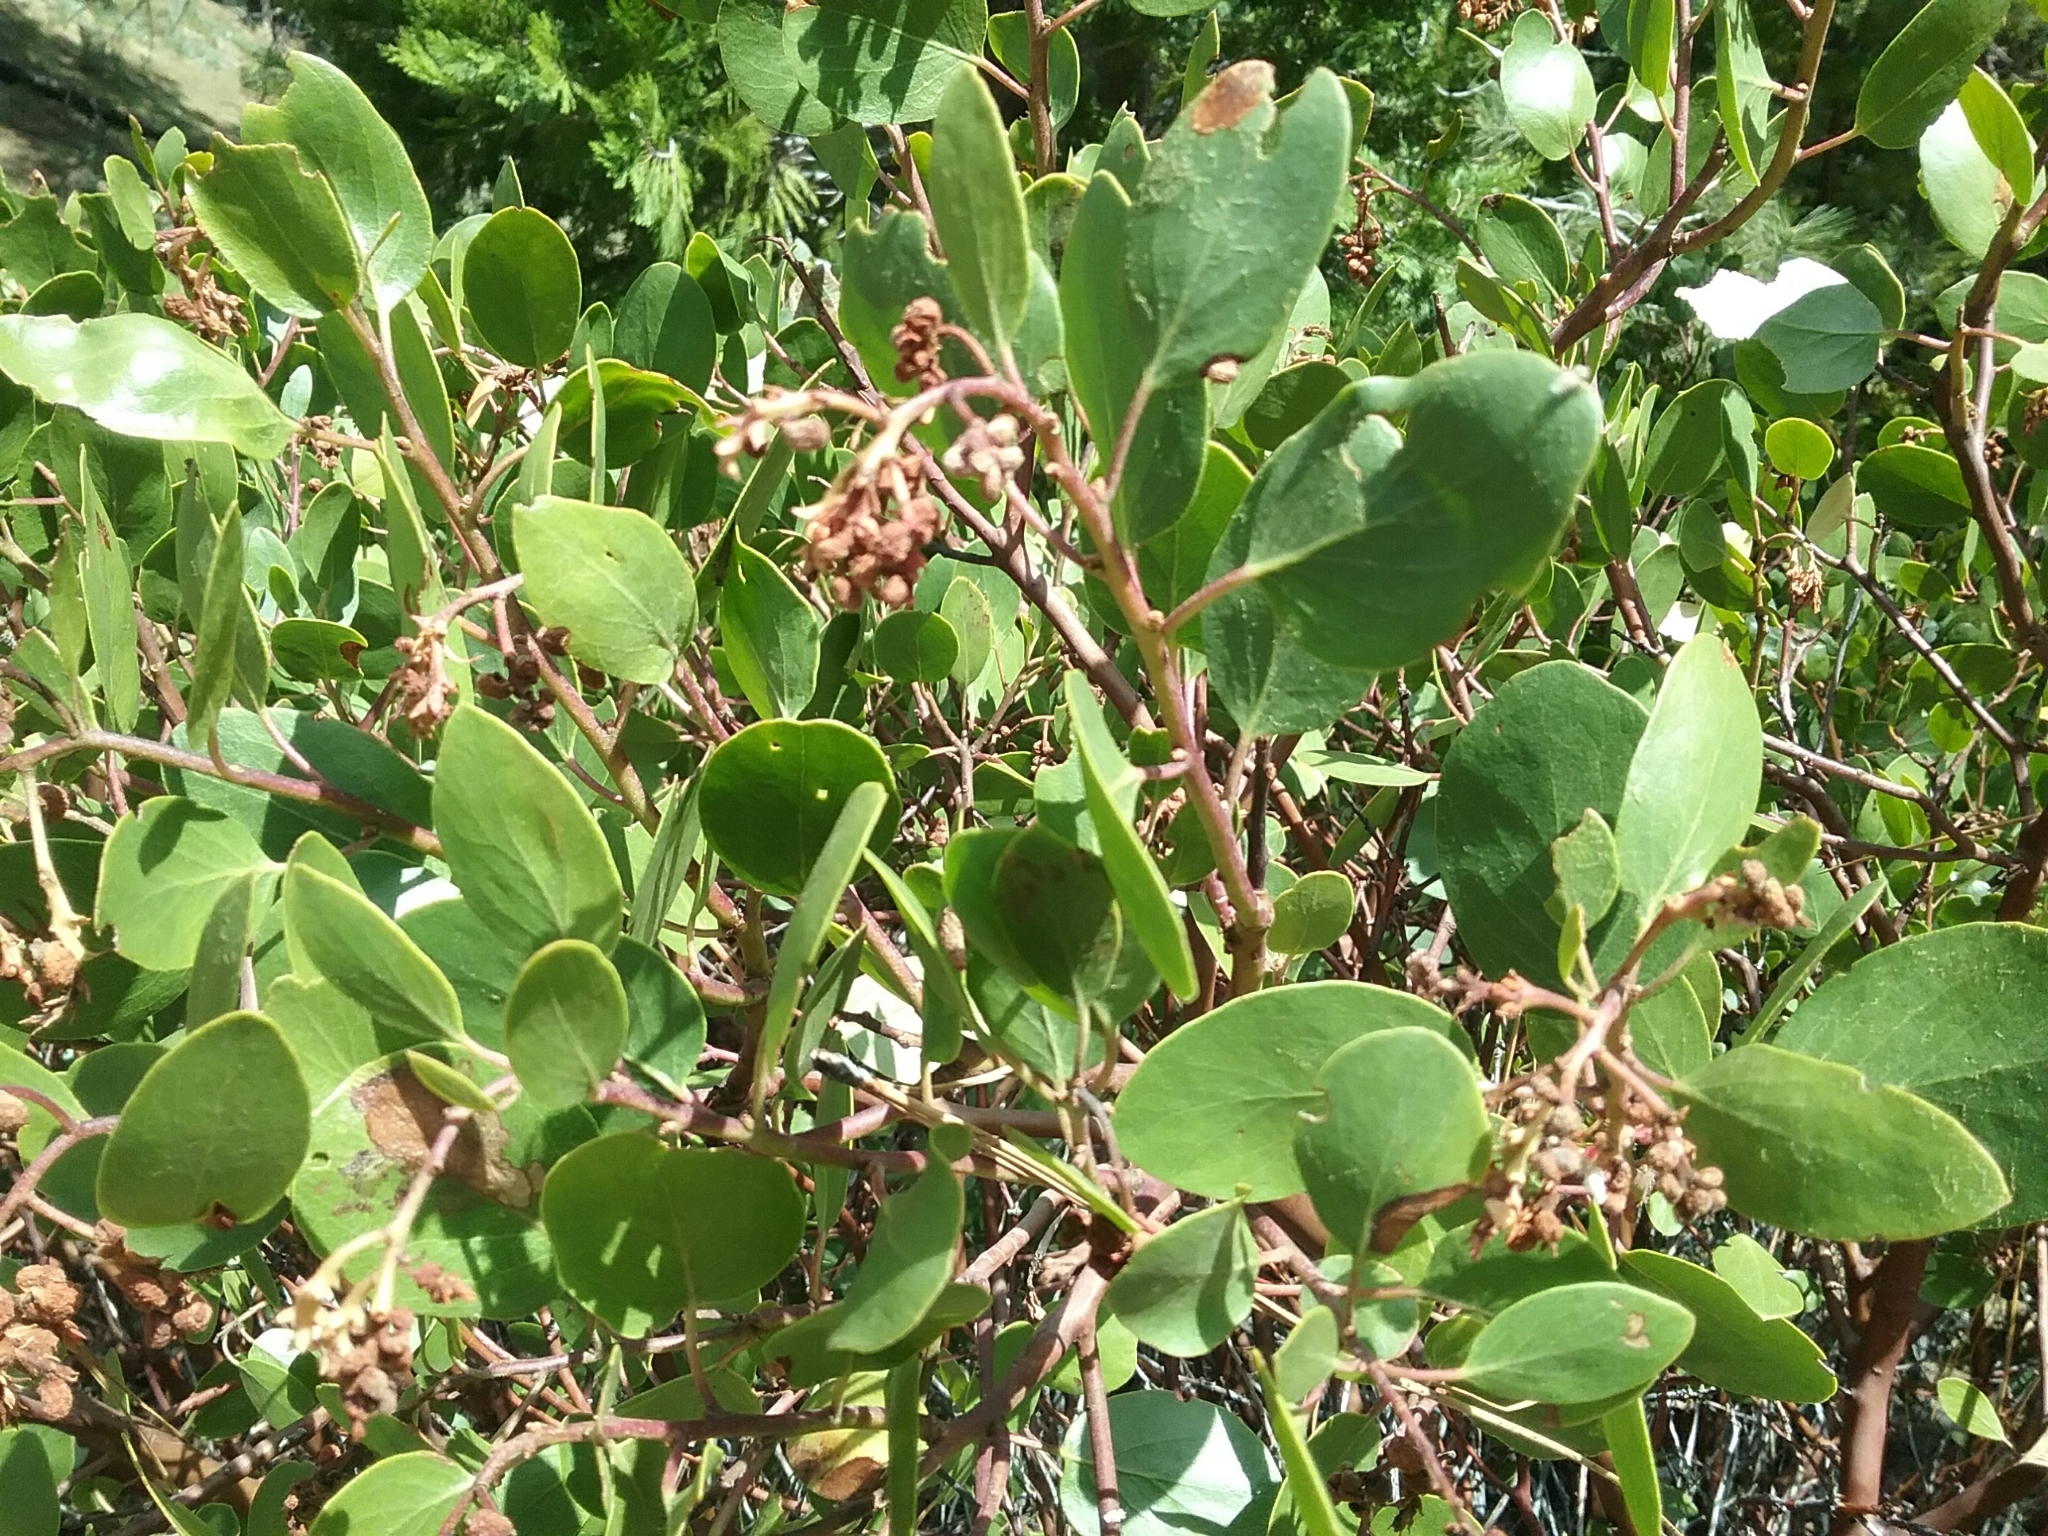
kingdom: Plantae
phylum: Tracheophyta
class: Magnoliopsida
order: Ericales
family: Ericaceae
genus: Arctostaphylos
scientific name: Arctostaphylos patula
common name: Green-leaf manzanita
